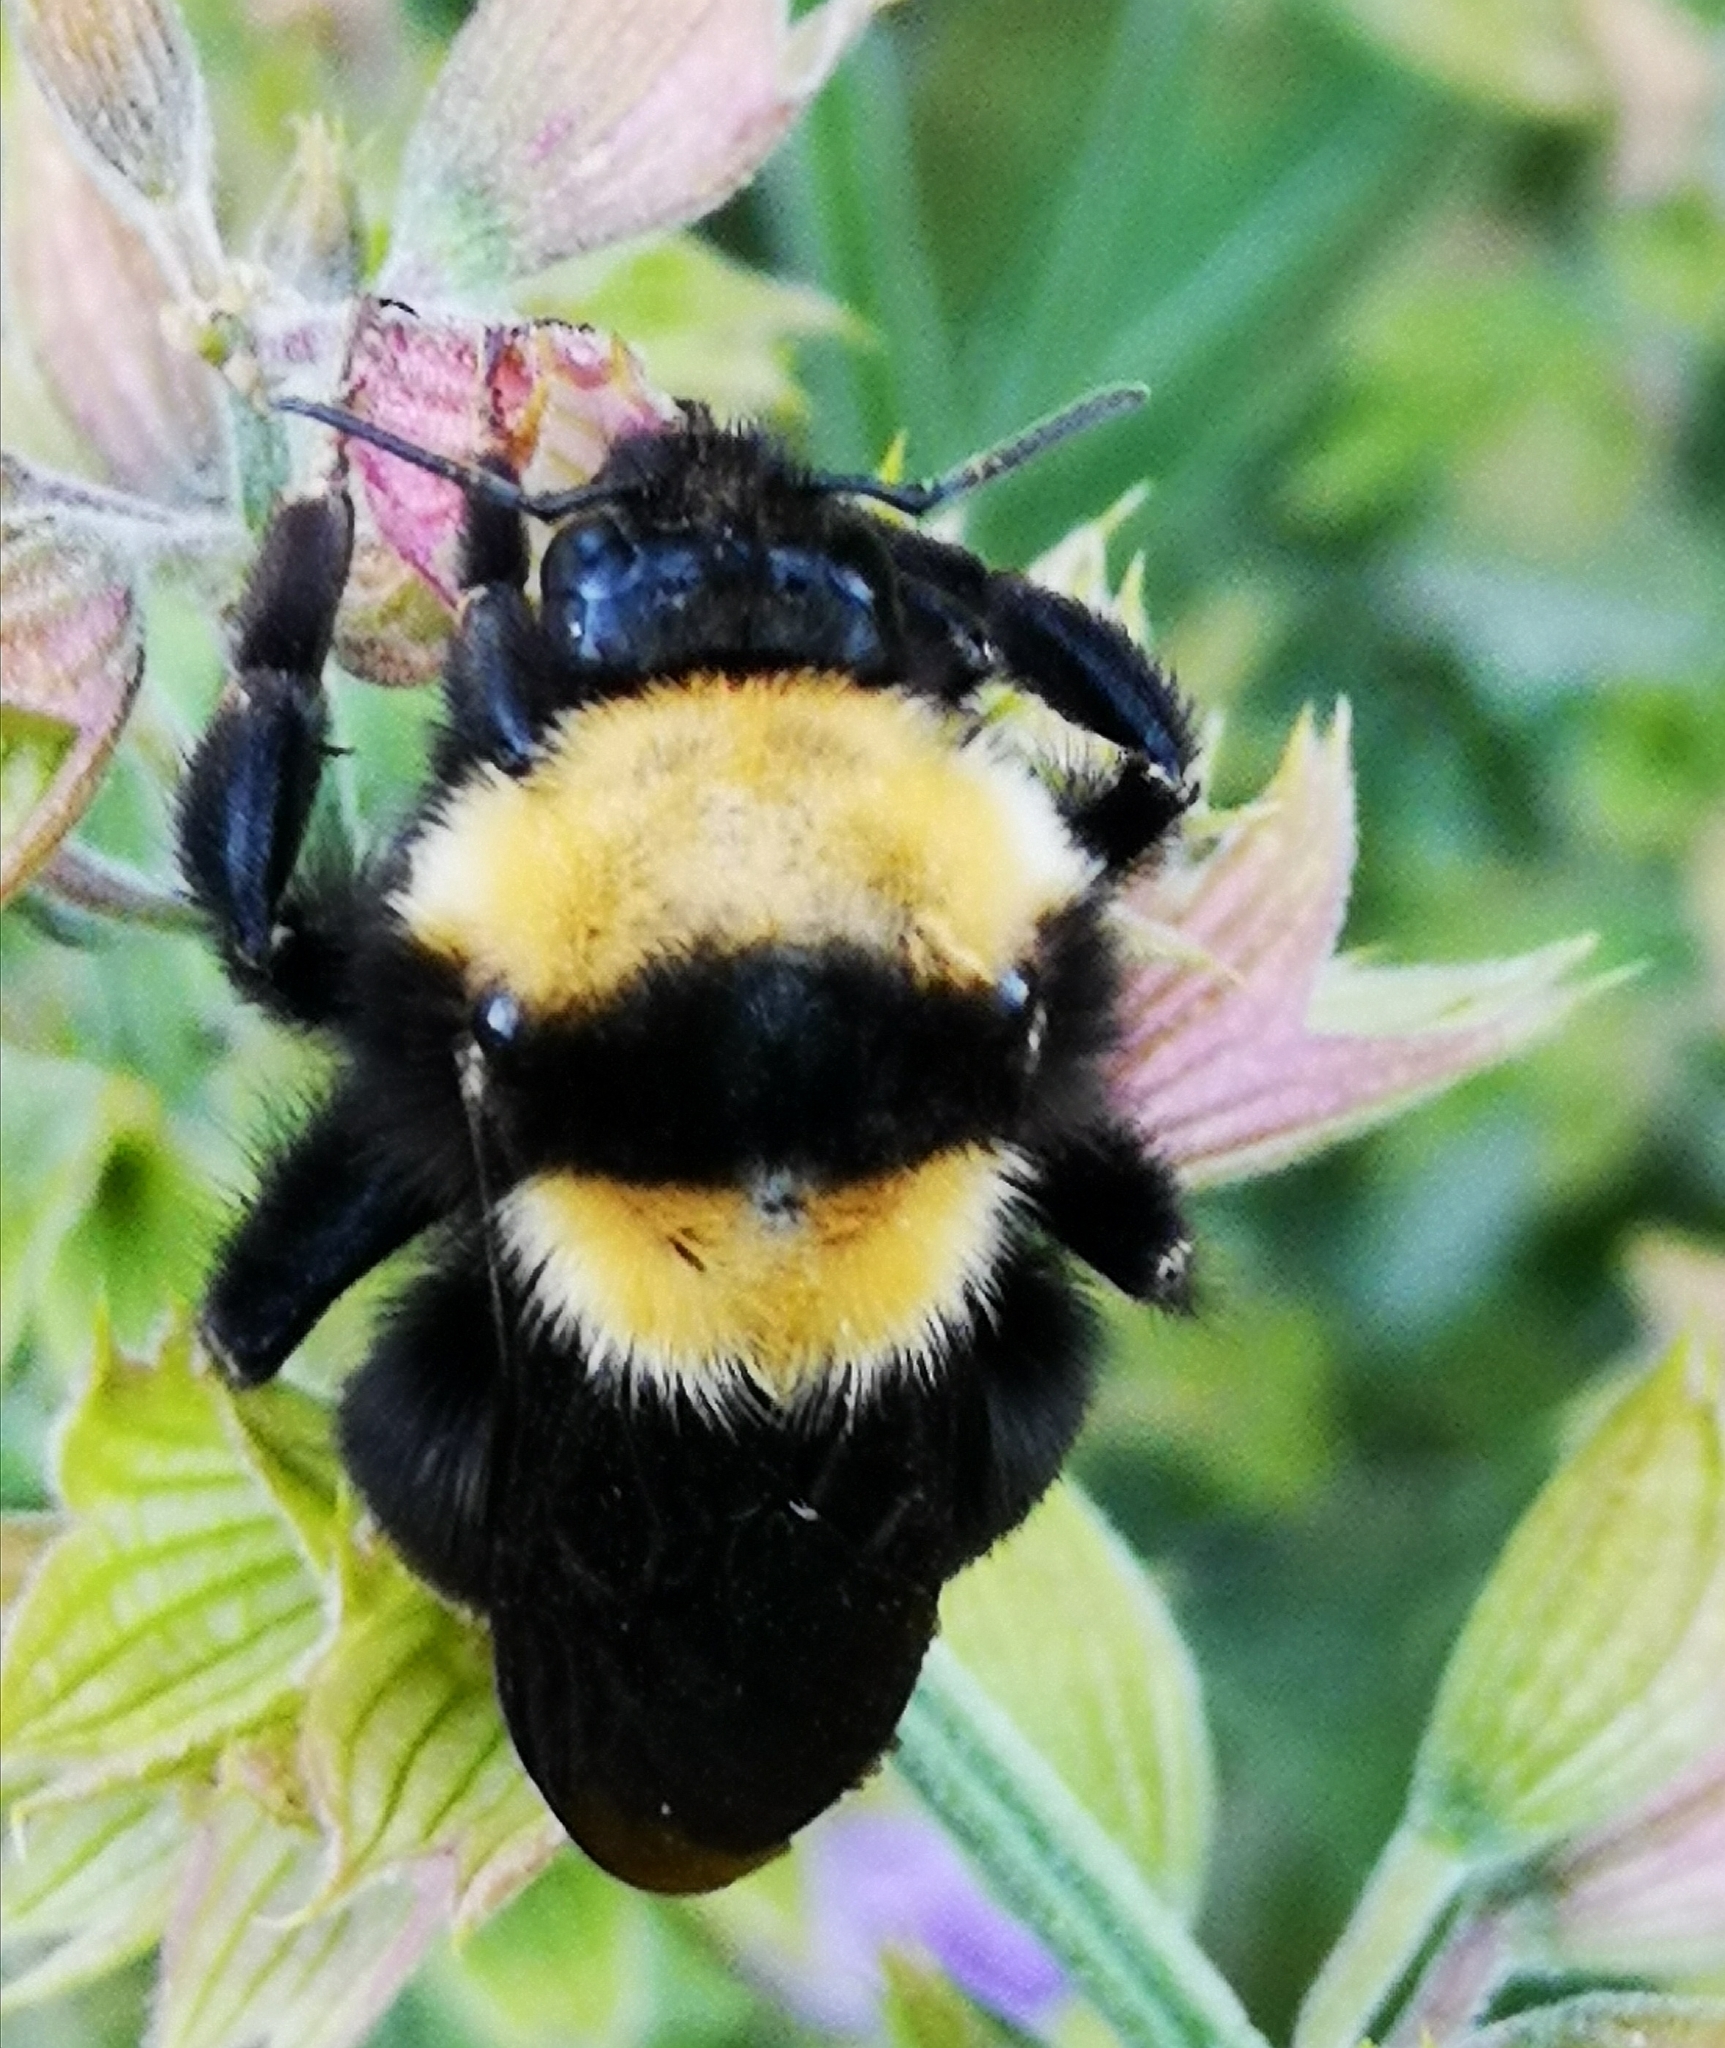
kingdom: Animalia
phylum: Arthropoda
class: Insecta
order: Hymenoptera
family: Apidae
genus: Bombus
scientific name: Bombus argillaceus
